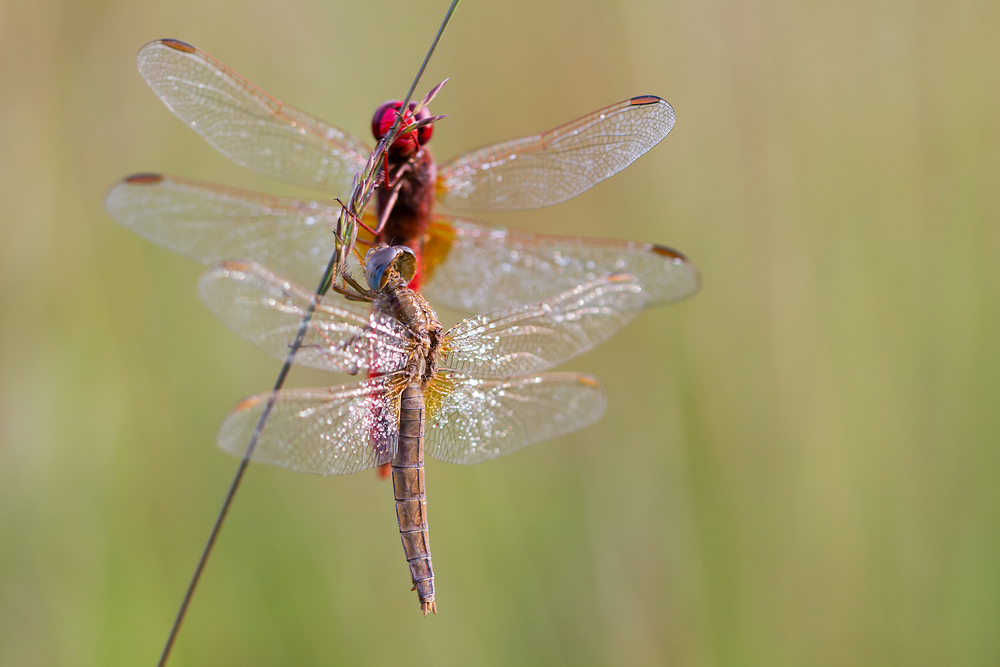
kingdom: Animalia
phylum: Arthropoda
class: Insecta
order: Odonata
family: Libellulidae
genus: Crocothemis
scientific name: Crocothemis erythraea
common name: Scarlet dragonfly
